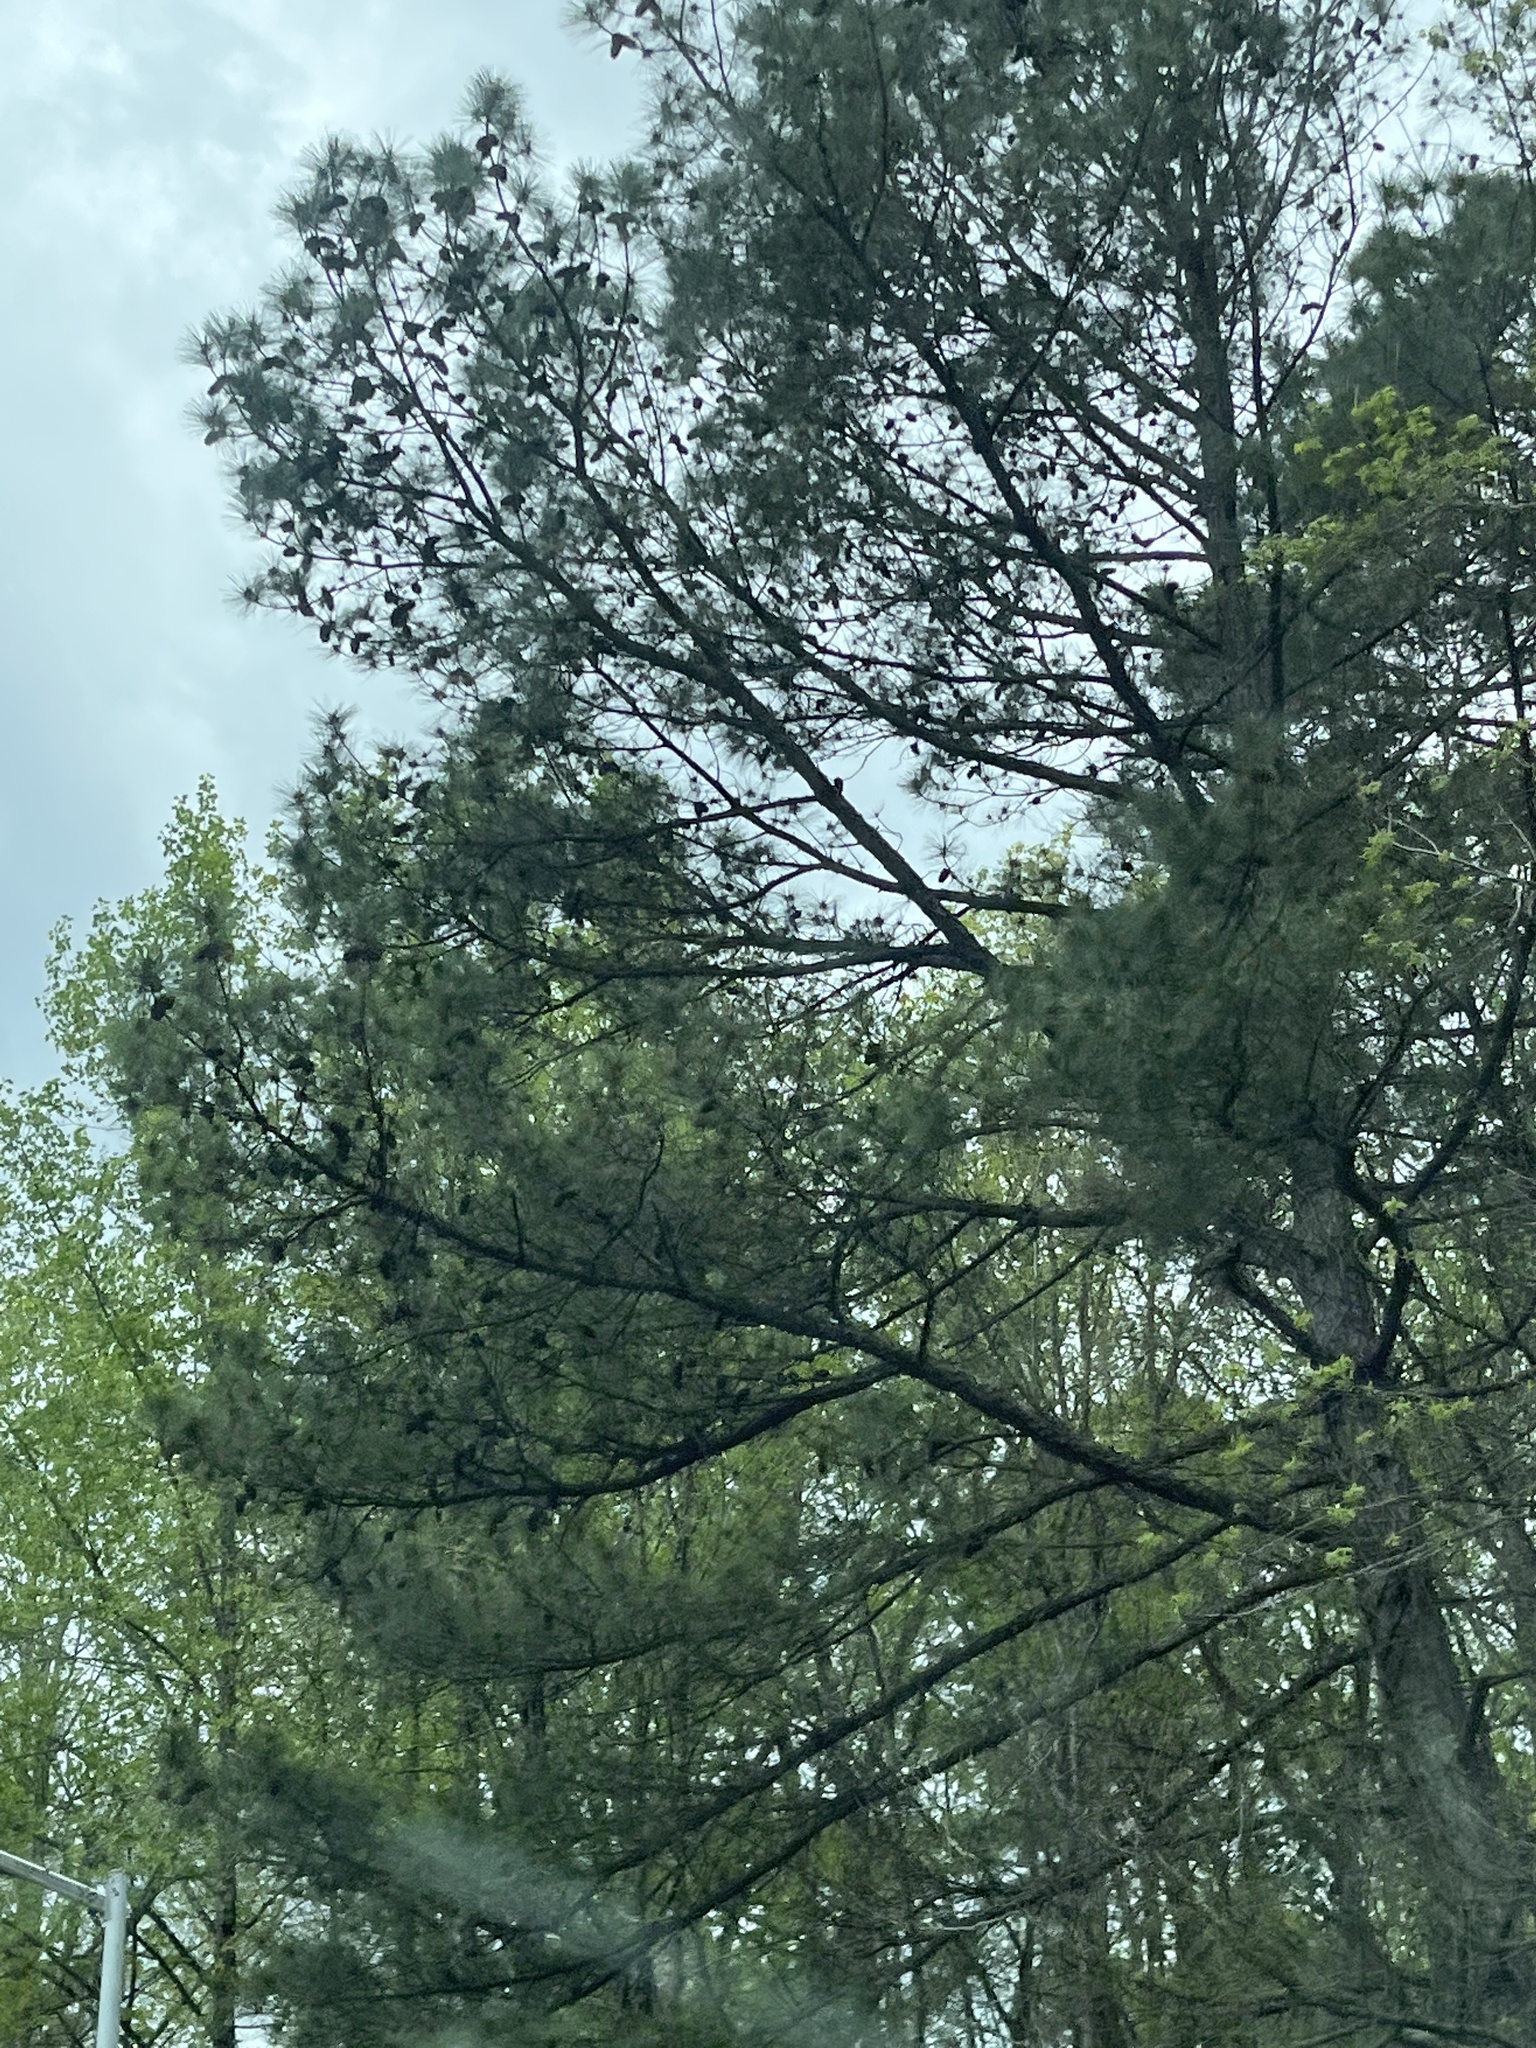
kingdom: Plantae
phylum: Tracheophyta
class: Pinopsida
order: Pinales
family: Pinaceae
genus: Pinus
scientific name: Pinus taeda
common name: Loblolly pine
